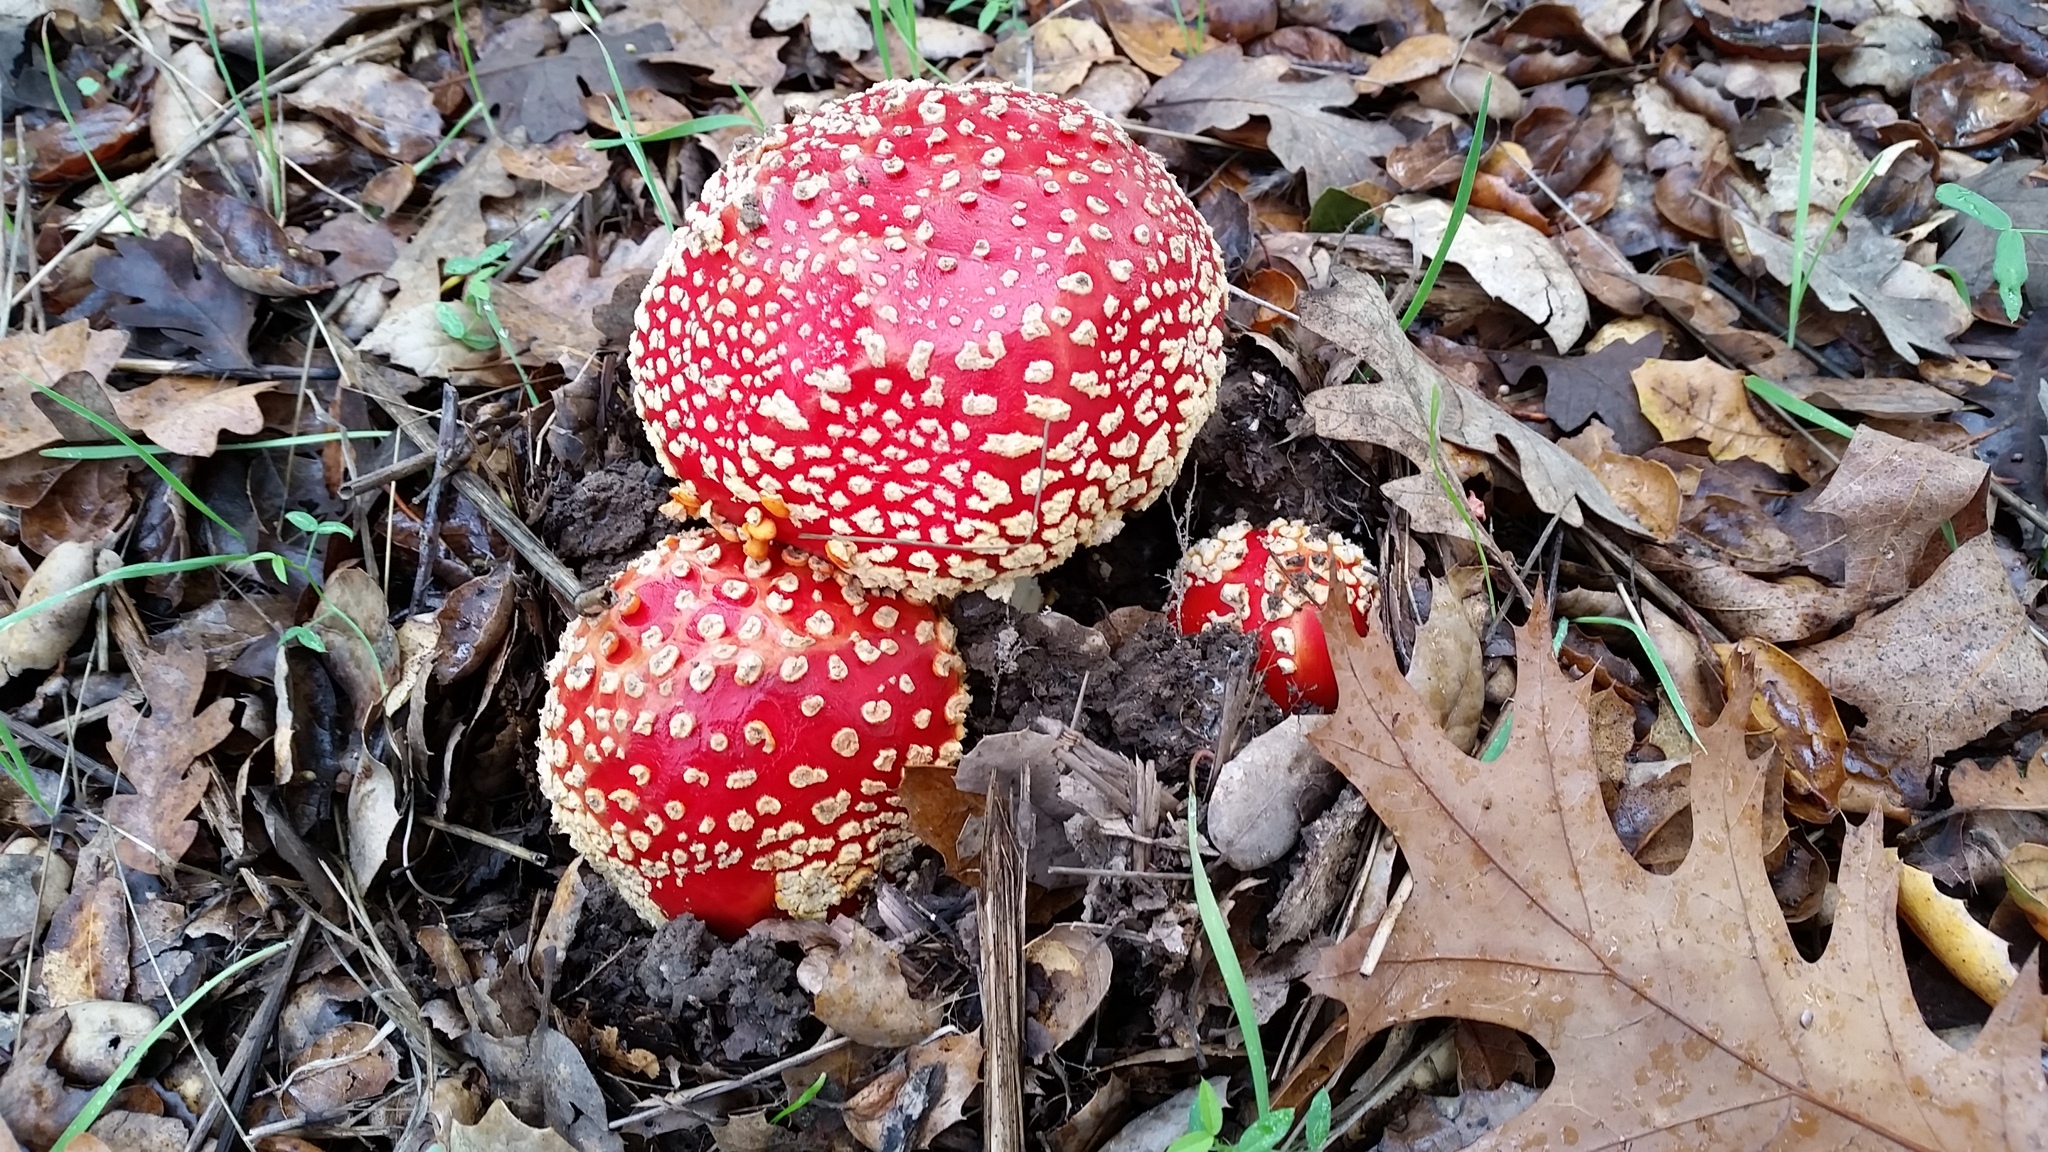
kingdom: Fungi
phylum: Basidiomycota
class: Agaricomycetes
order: Agaricales
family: Amanitaceae
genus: Amanita
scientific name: Amanita muscaria
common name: Fly agaric
